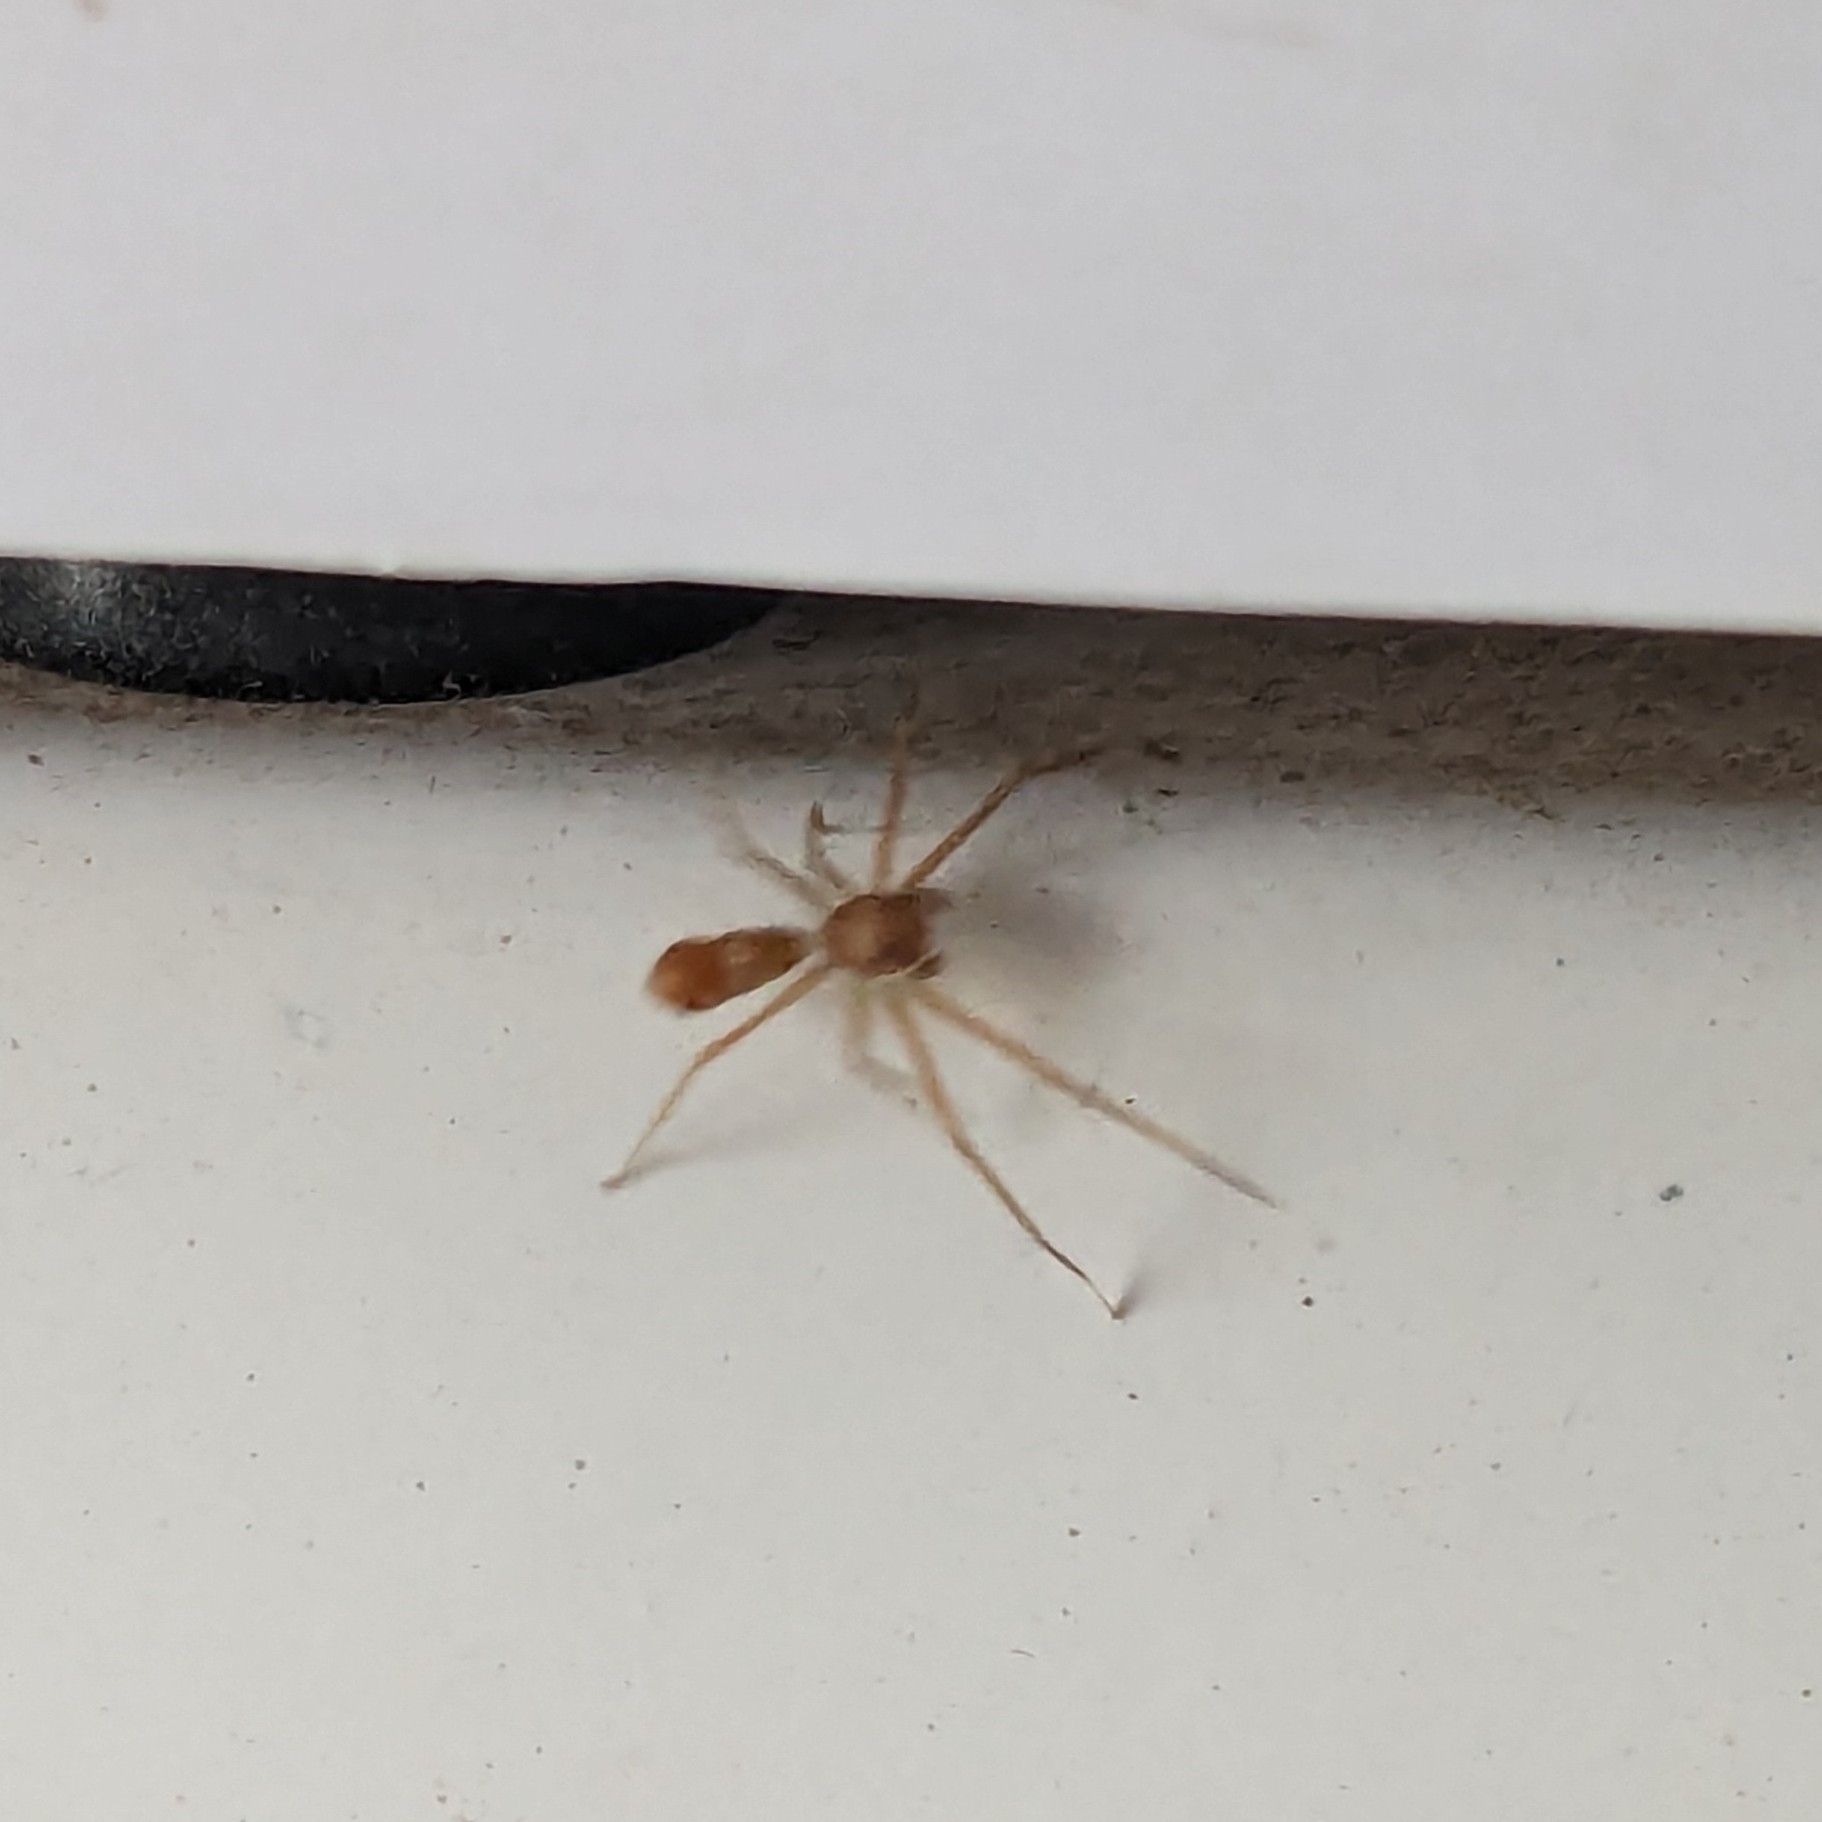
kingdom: Animalia
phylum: Arthropoda
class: Arachnida
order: Araneae
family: Thomisidae
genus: Amyciaea
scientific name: Amyciaea forticeps
